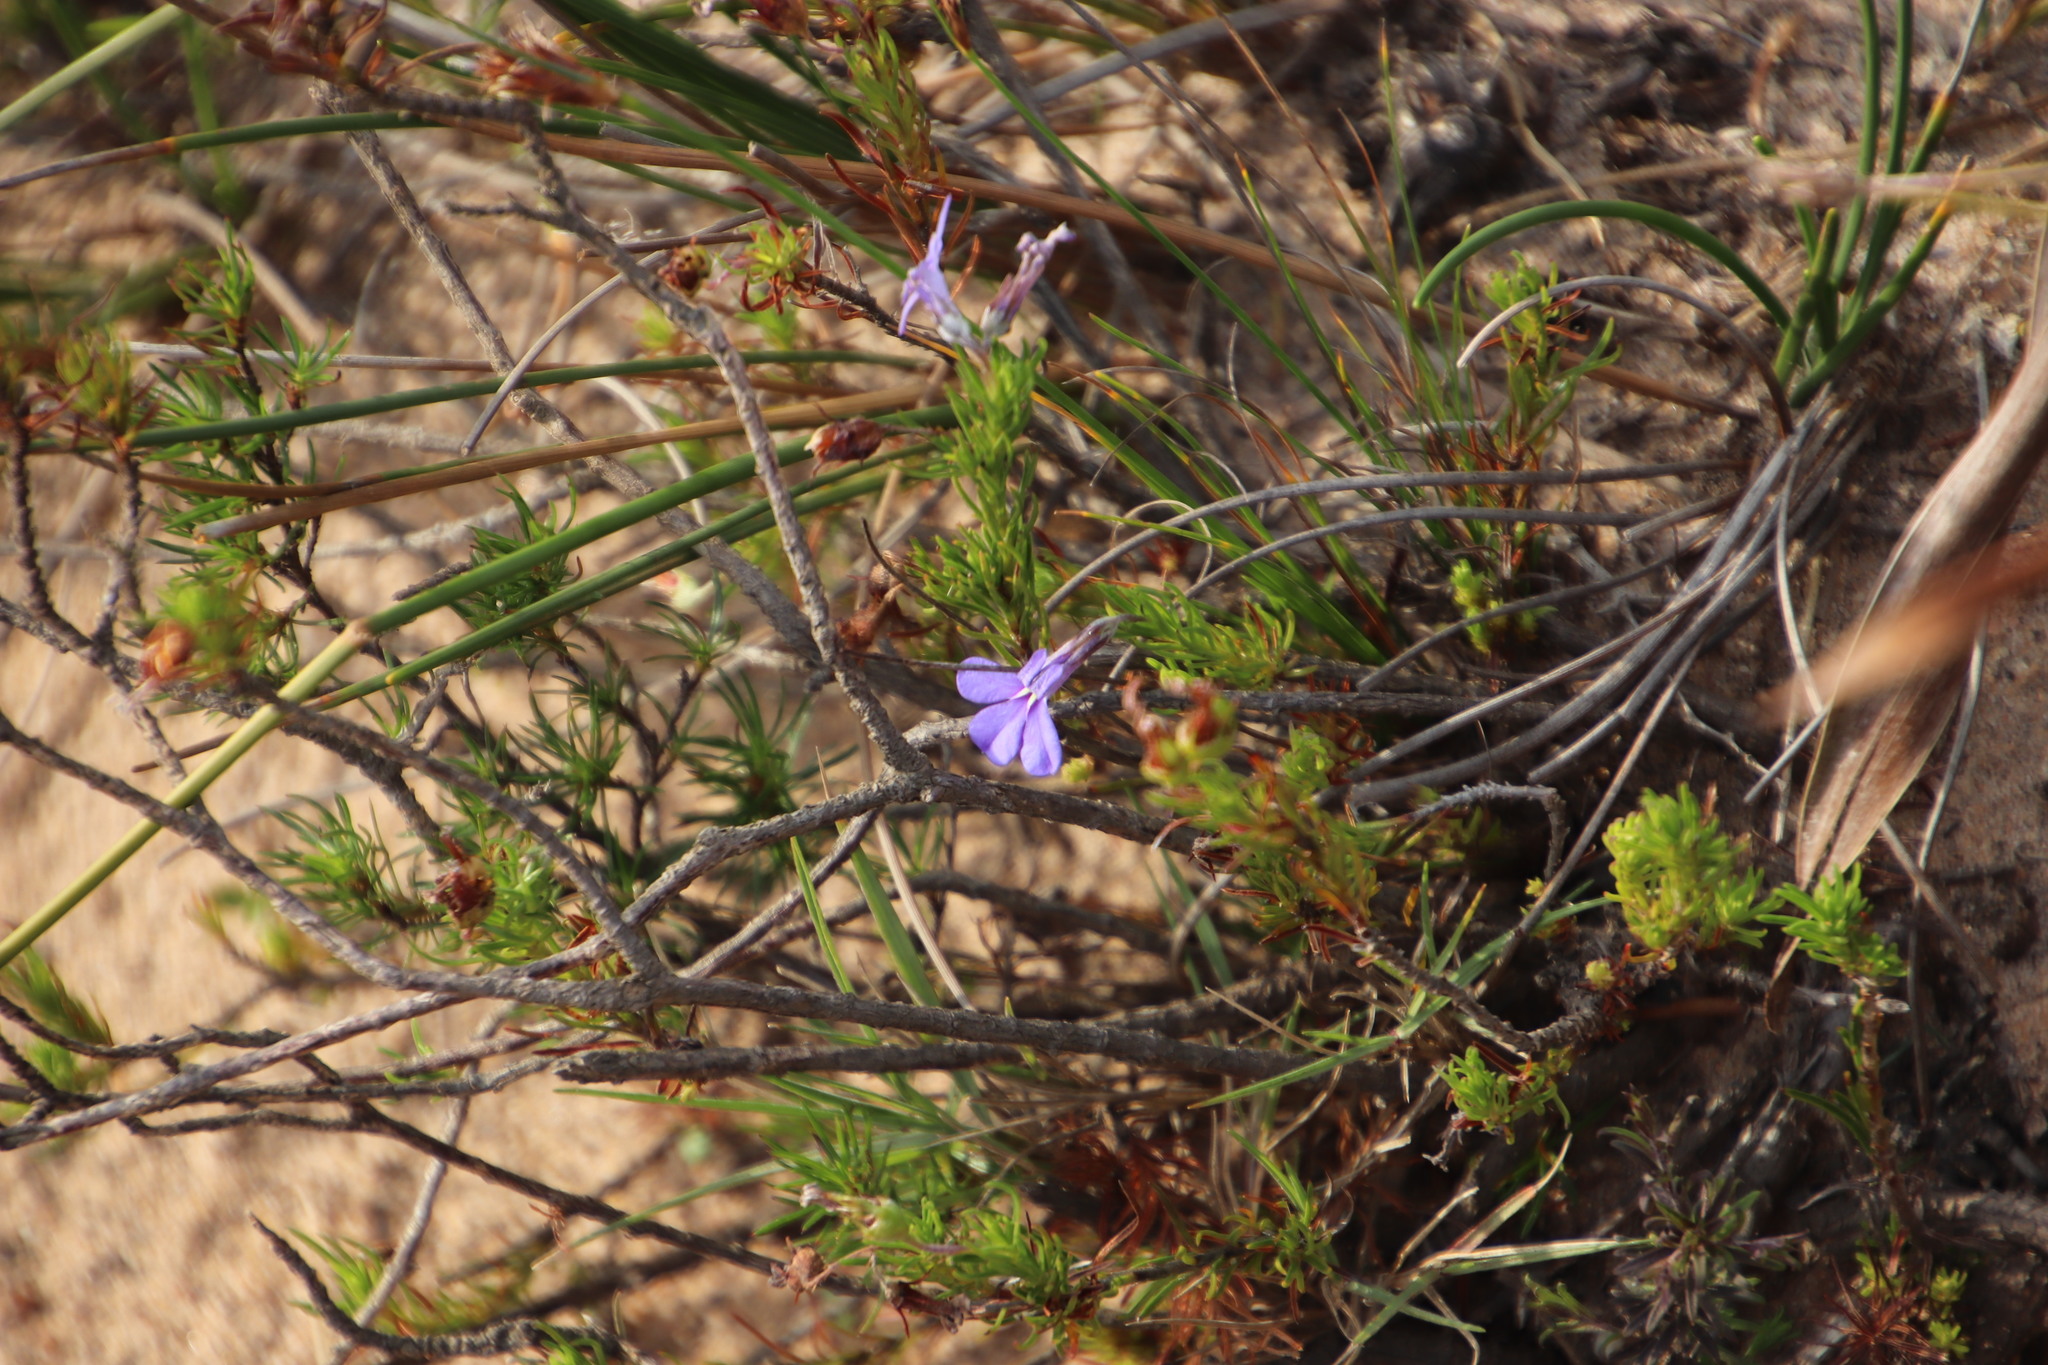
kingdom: Plantae
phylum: Tracheophyta
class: Magnoliopsida
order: Asterales
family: Campanulaceae
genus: Lobelia
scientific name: Lobelia pinifolia
